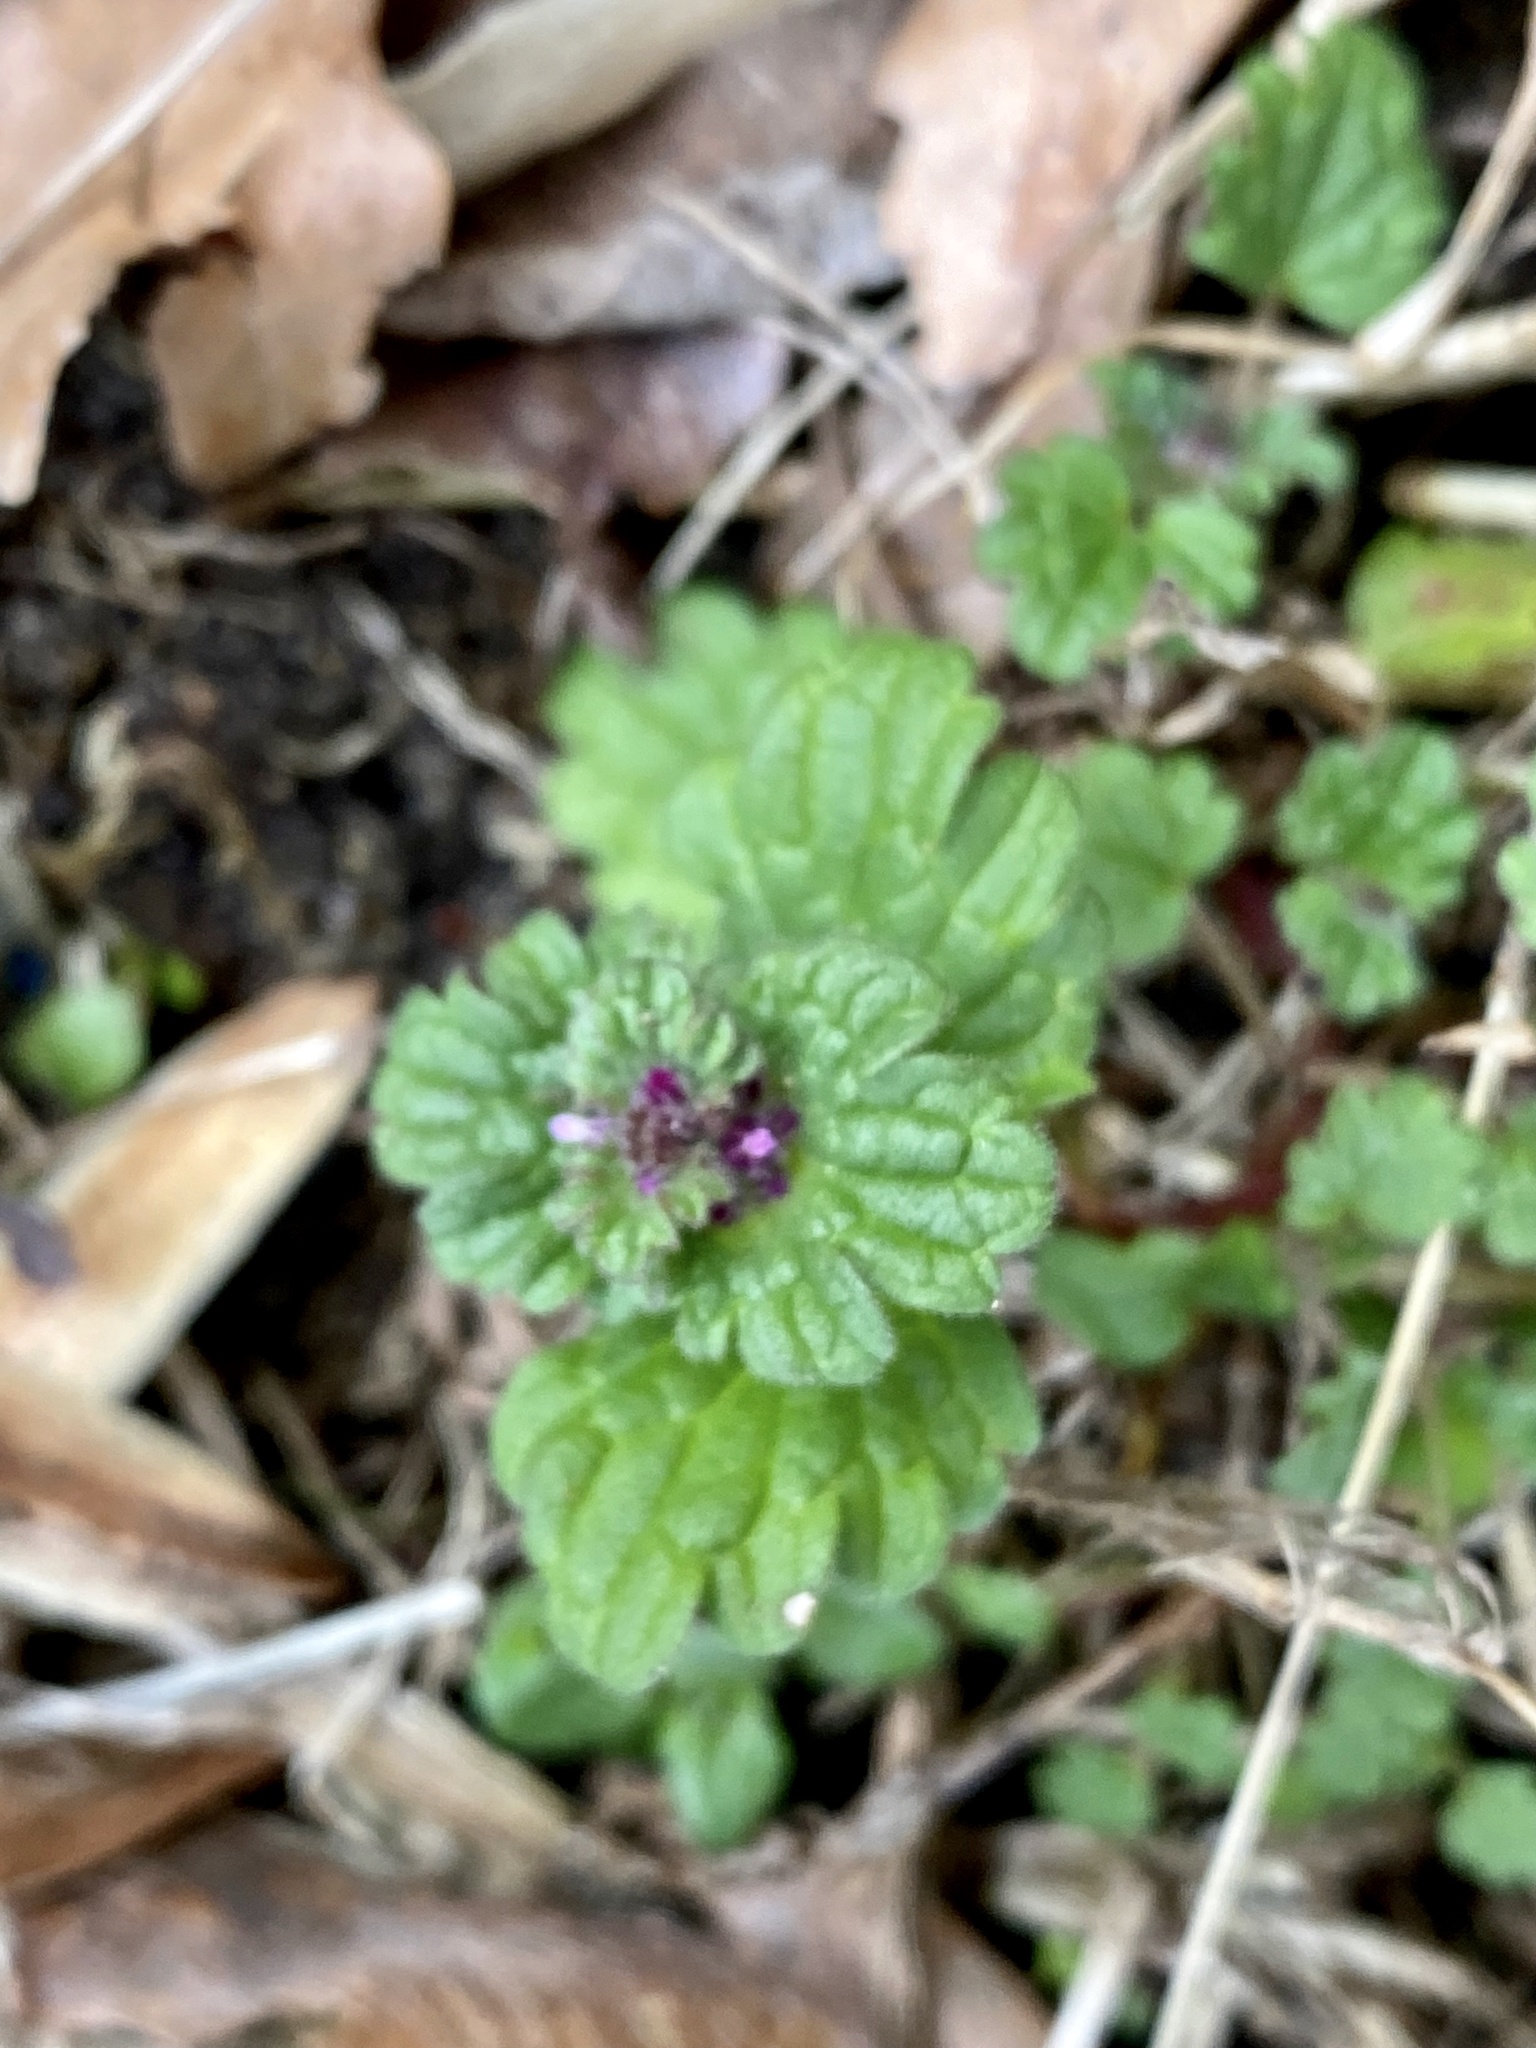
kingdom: Plantae
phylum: Tracheophyta
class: Magnoliopsida
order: Lamiales
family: Lamiaceae
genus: Lamium
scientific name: Lamium amplexicaule
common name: Henbit dead-nettle
